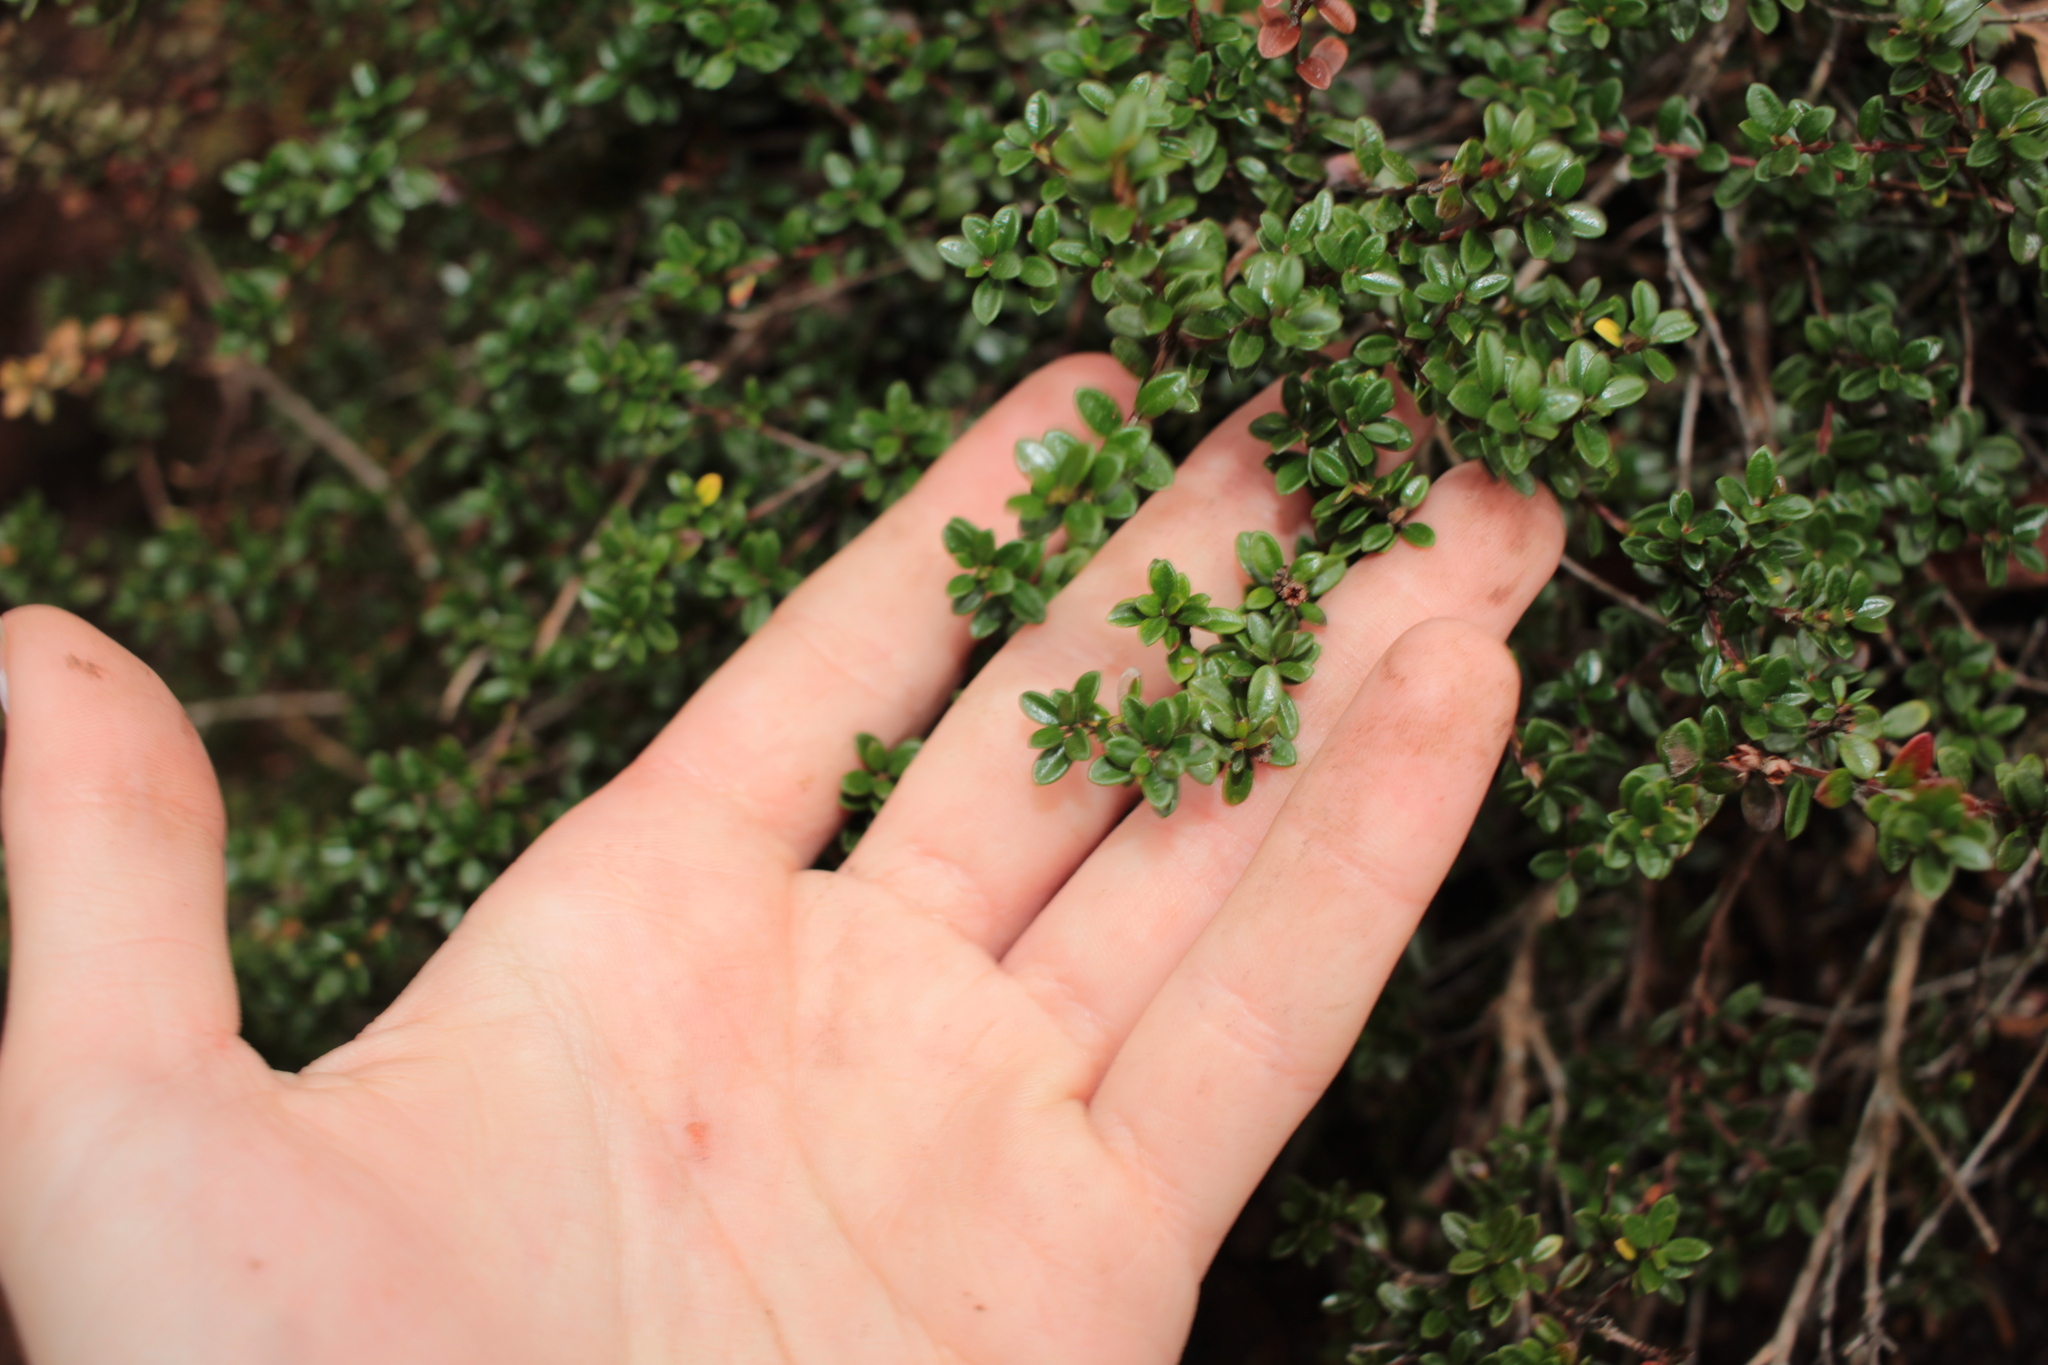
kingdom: Plantae
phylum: Tracheophyta
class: Magnoliopsida
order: Ericales
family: Ericaceae
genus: Kalmia
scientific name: Kalmia buxifolia
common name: Sandmyrtle
